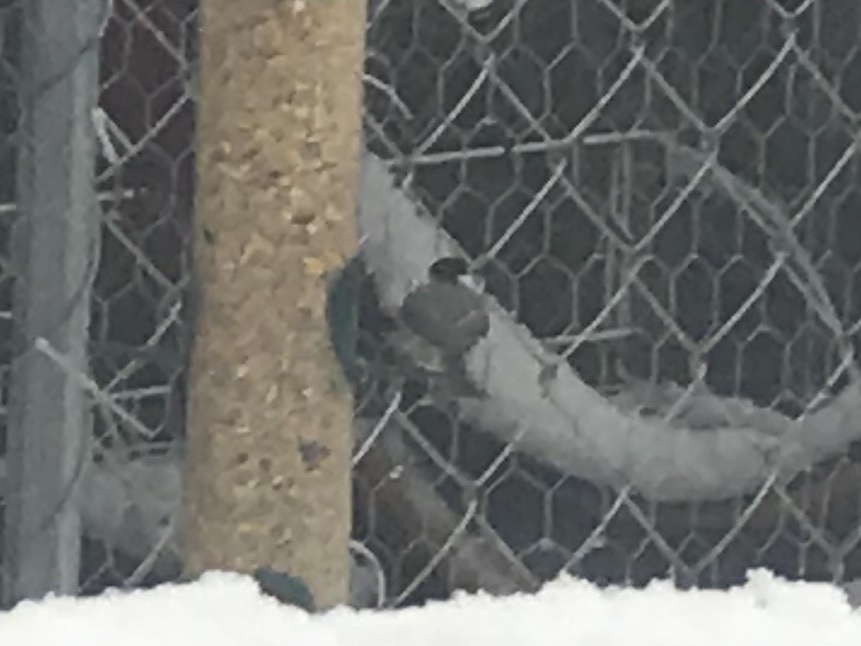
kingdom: Animalia
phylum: Chordata
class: Aves
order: Passeriformes
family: Paridae
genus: Poecile
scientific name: Poecile carolinensis
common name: Carolina chickadee
